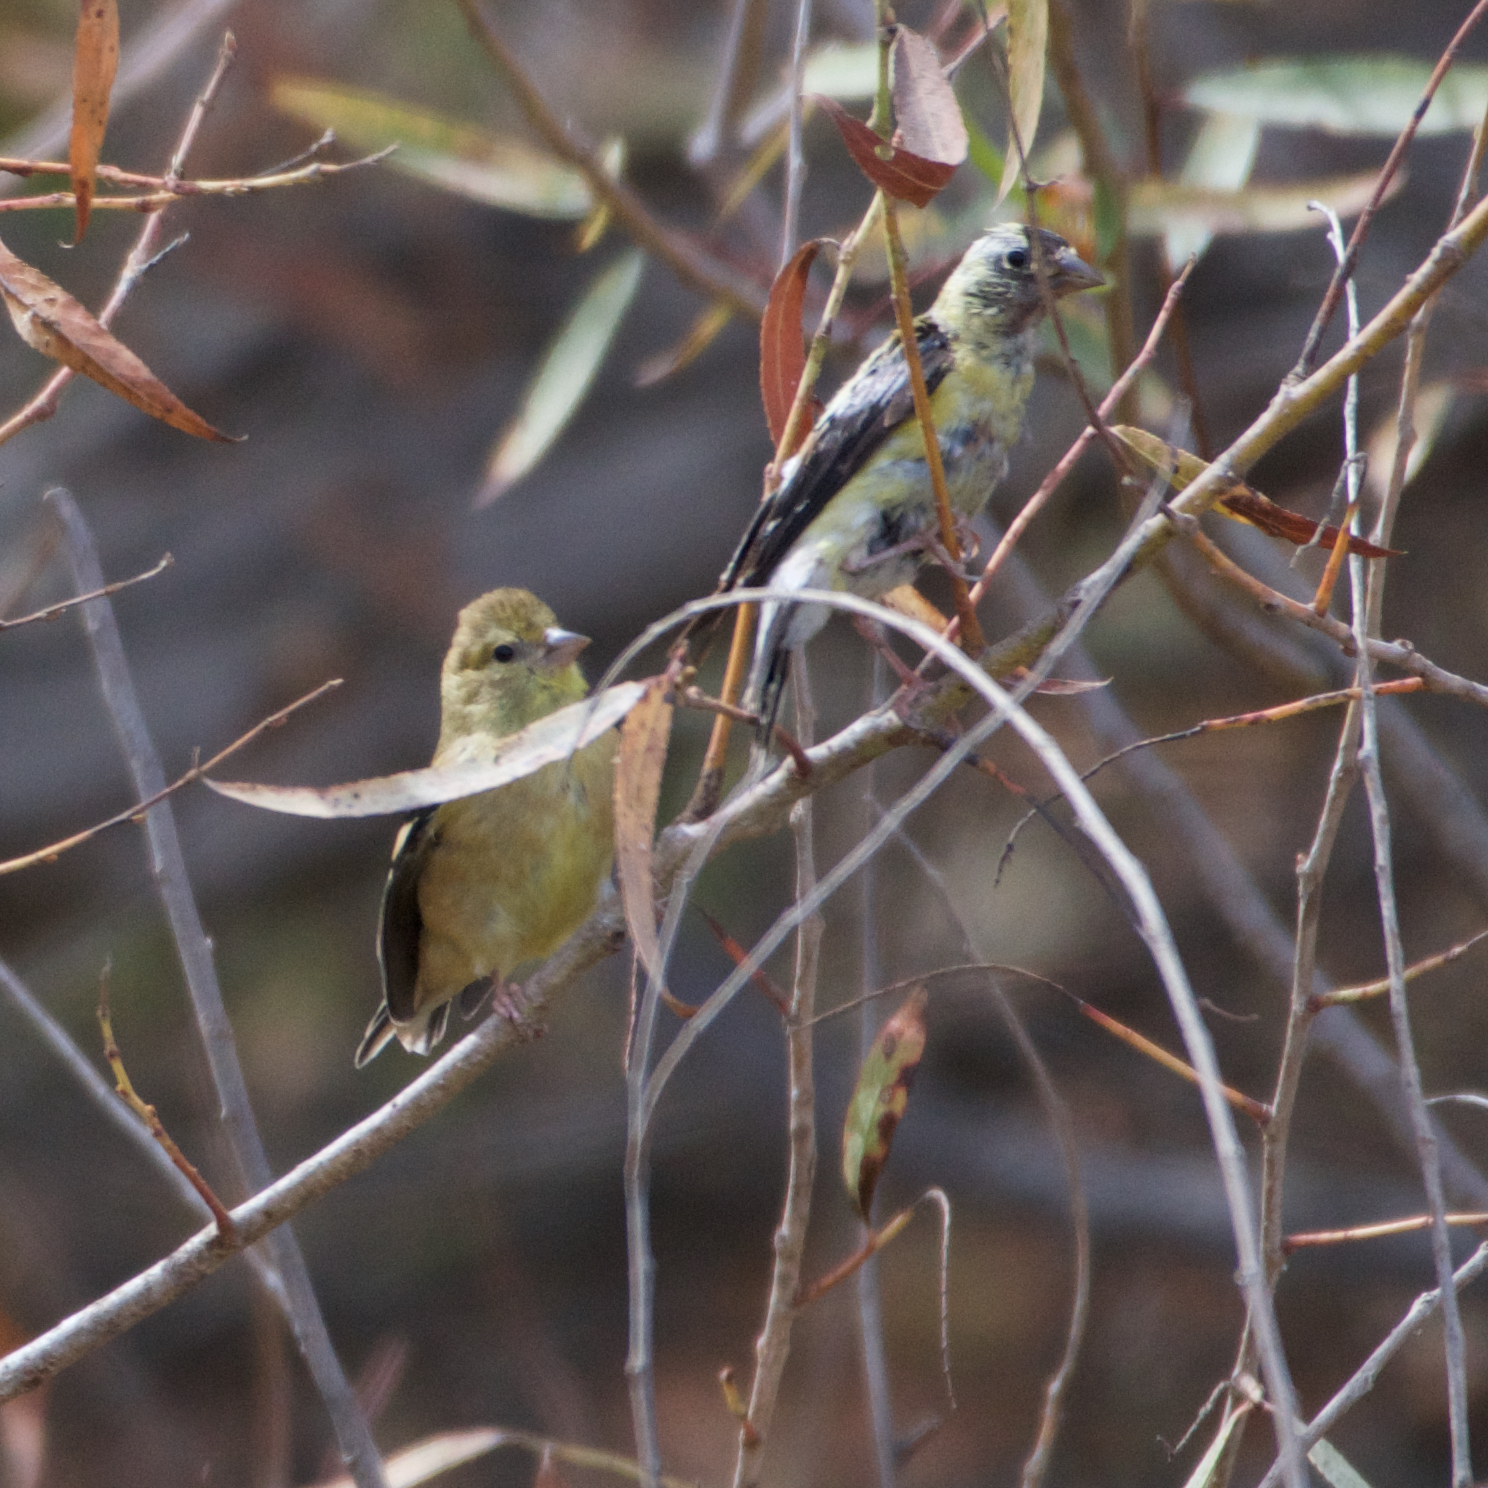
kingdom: Animalia
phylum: Chordata
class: Aves
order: Passeriformes
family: Fringillidae
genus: Spinus
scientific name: Spinus psaltria
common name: Lesser goldfinch
